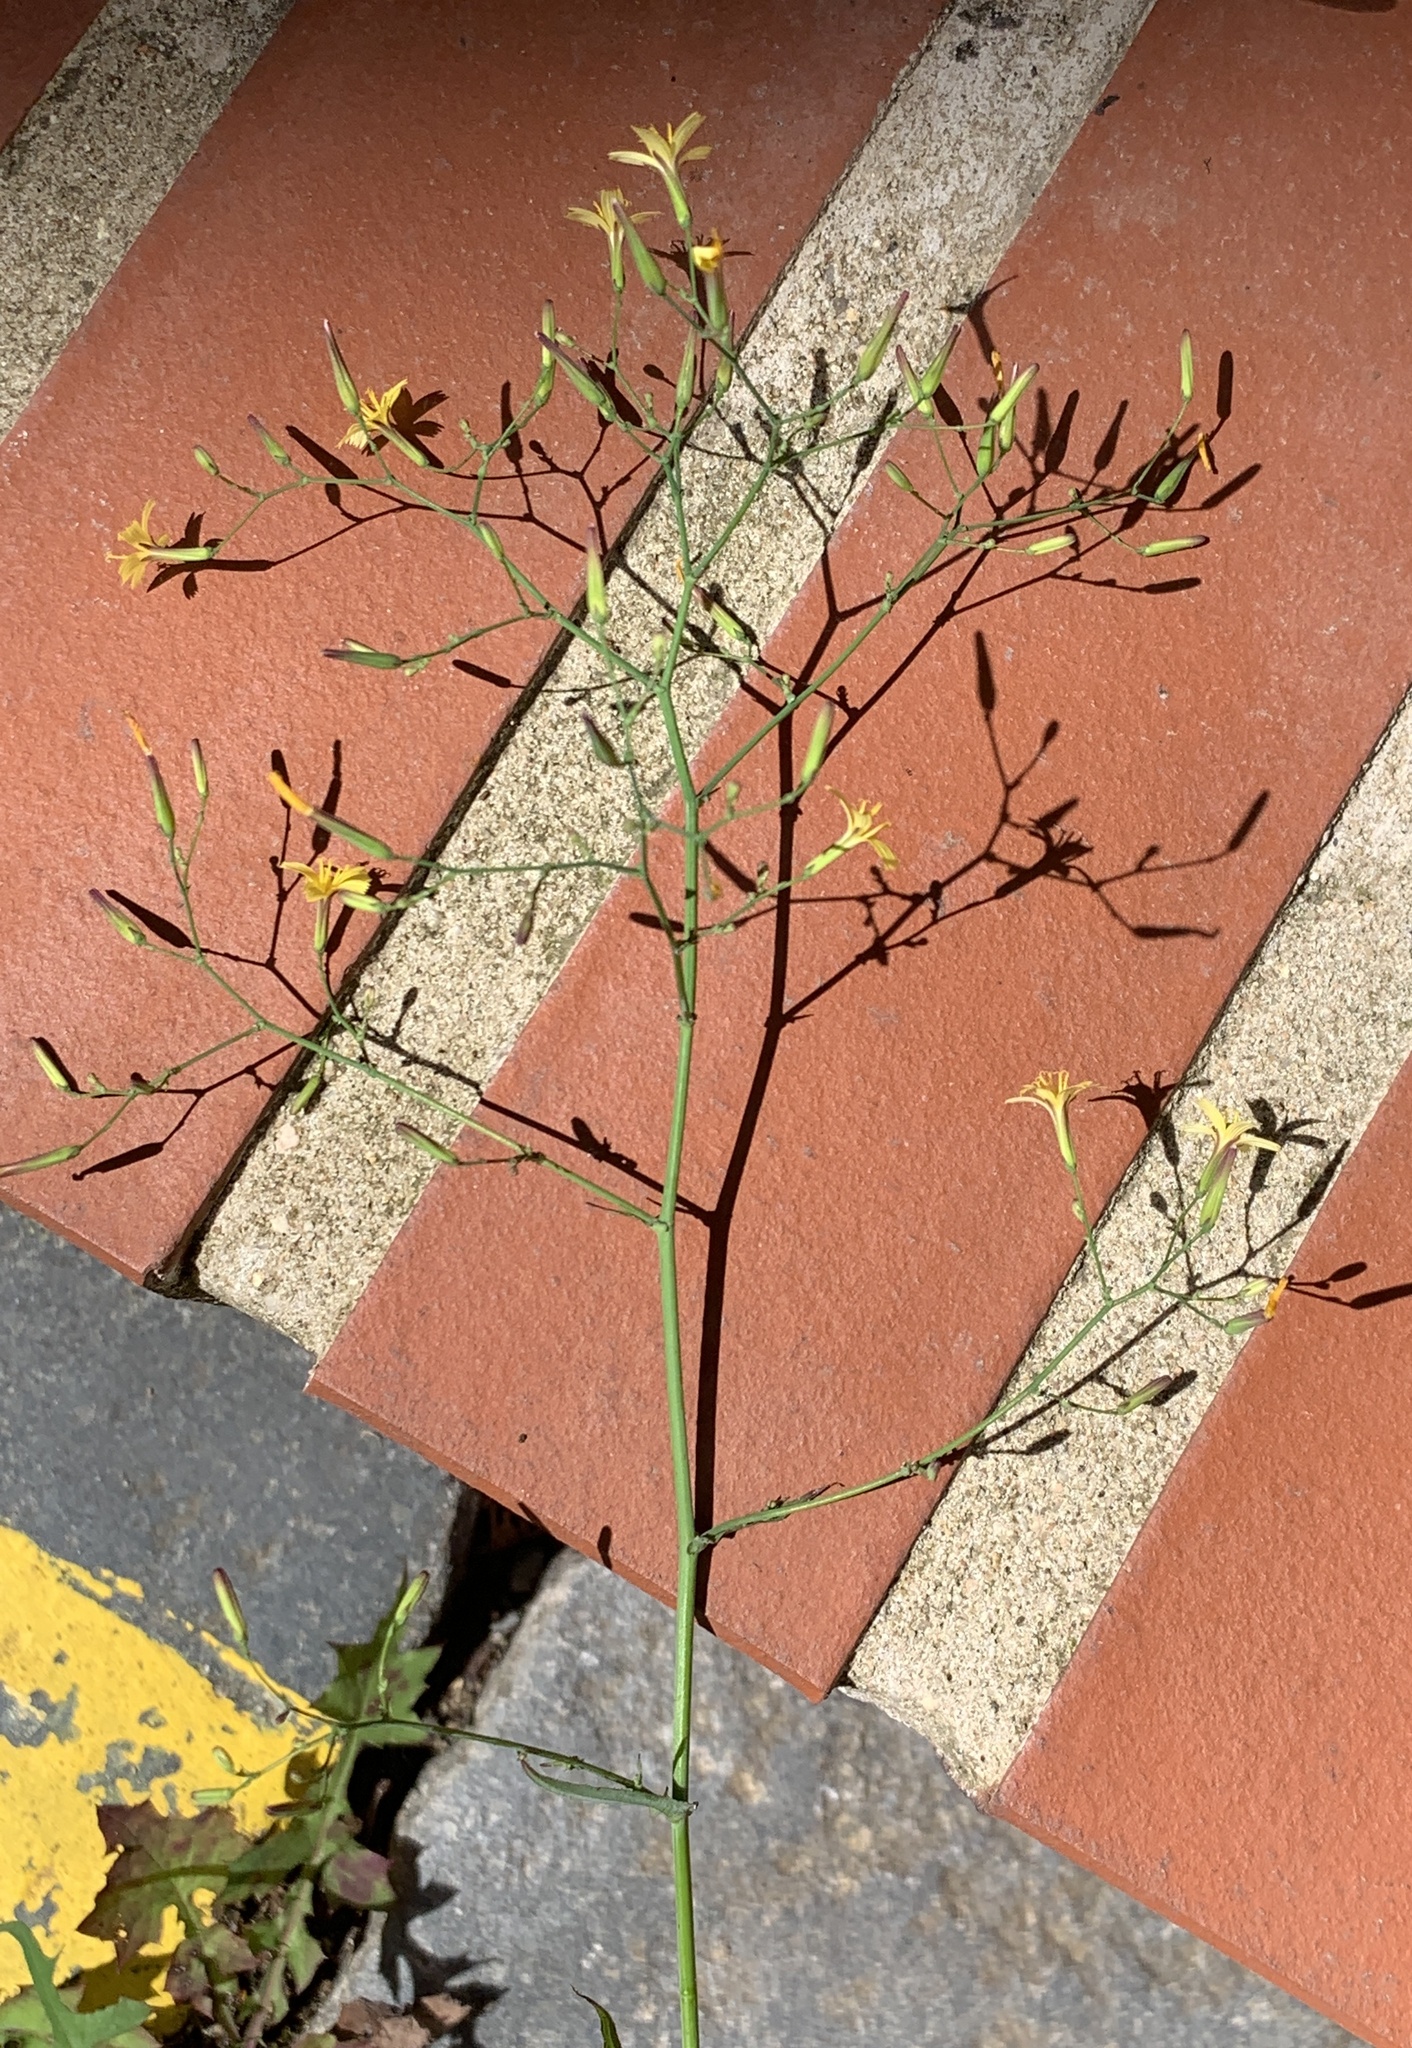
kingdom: Plantae
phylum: Tracheophyta
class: Magnoliopsida
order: Asterales
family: Asteraceae
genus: Mycelis
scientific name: Mycelis muralis
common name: Wall lettuce
